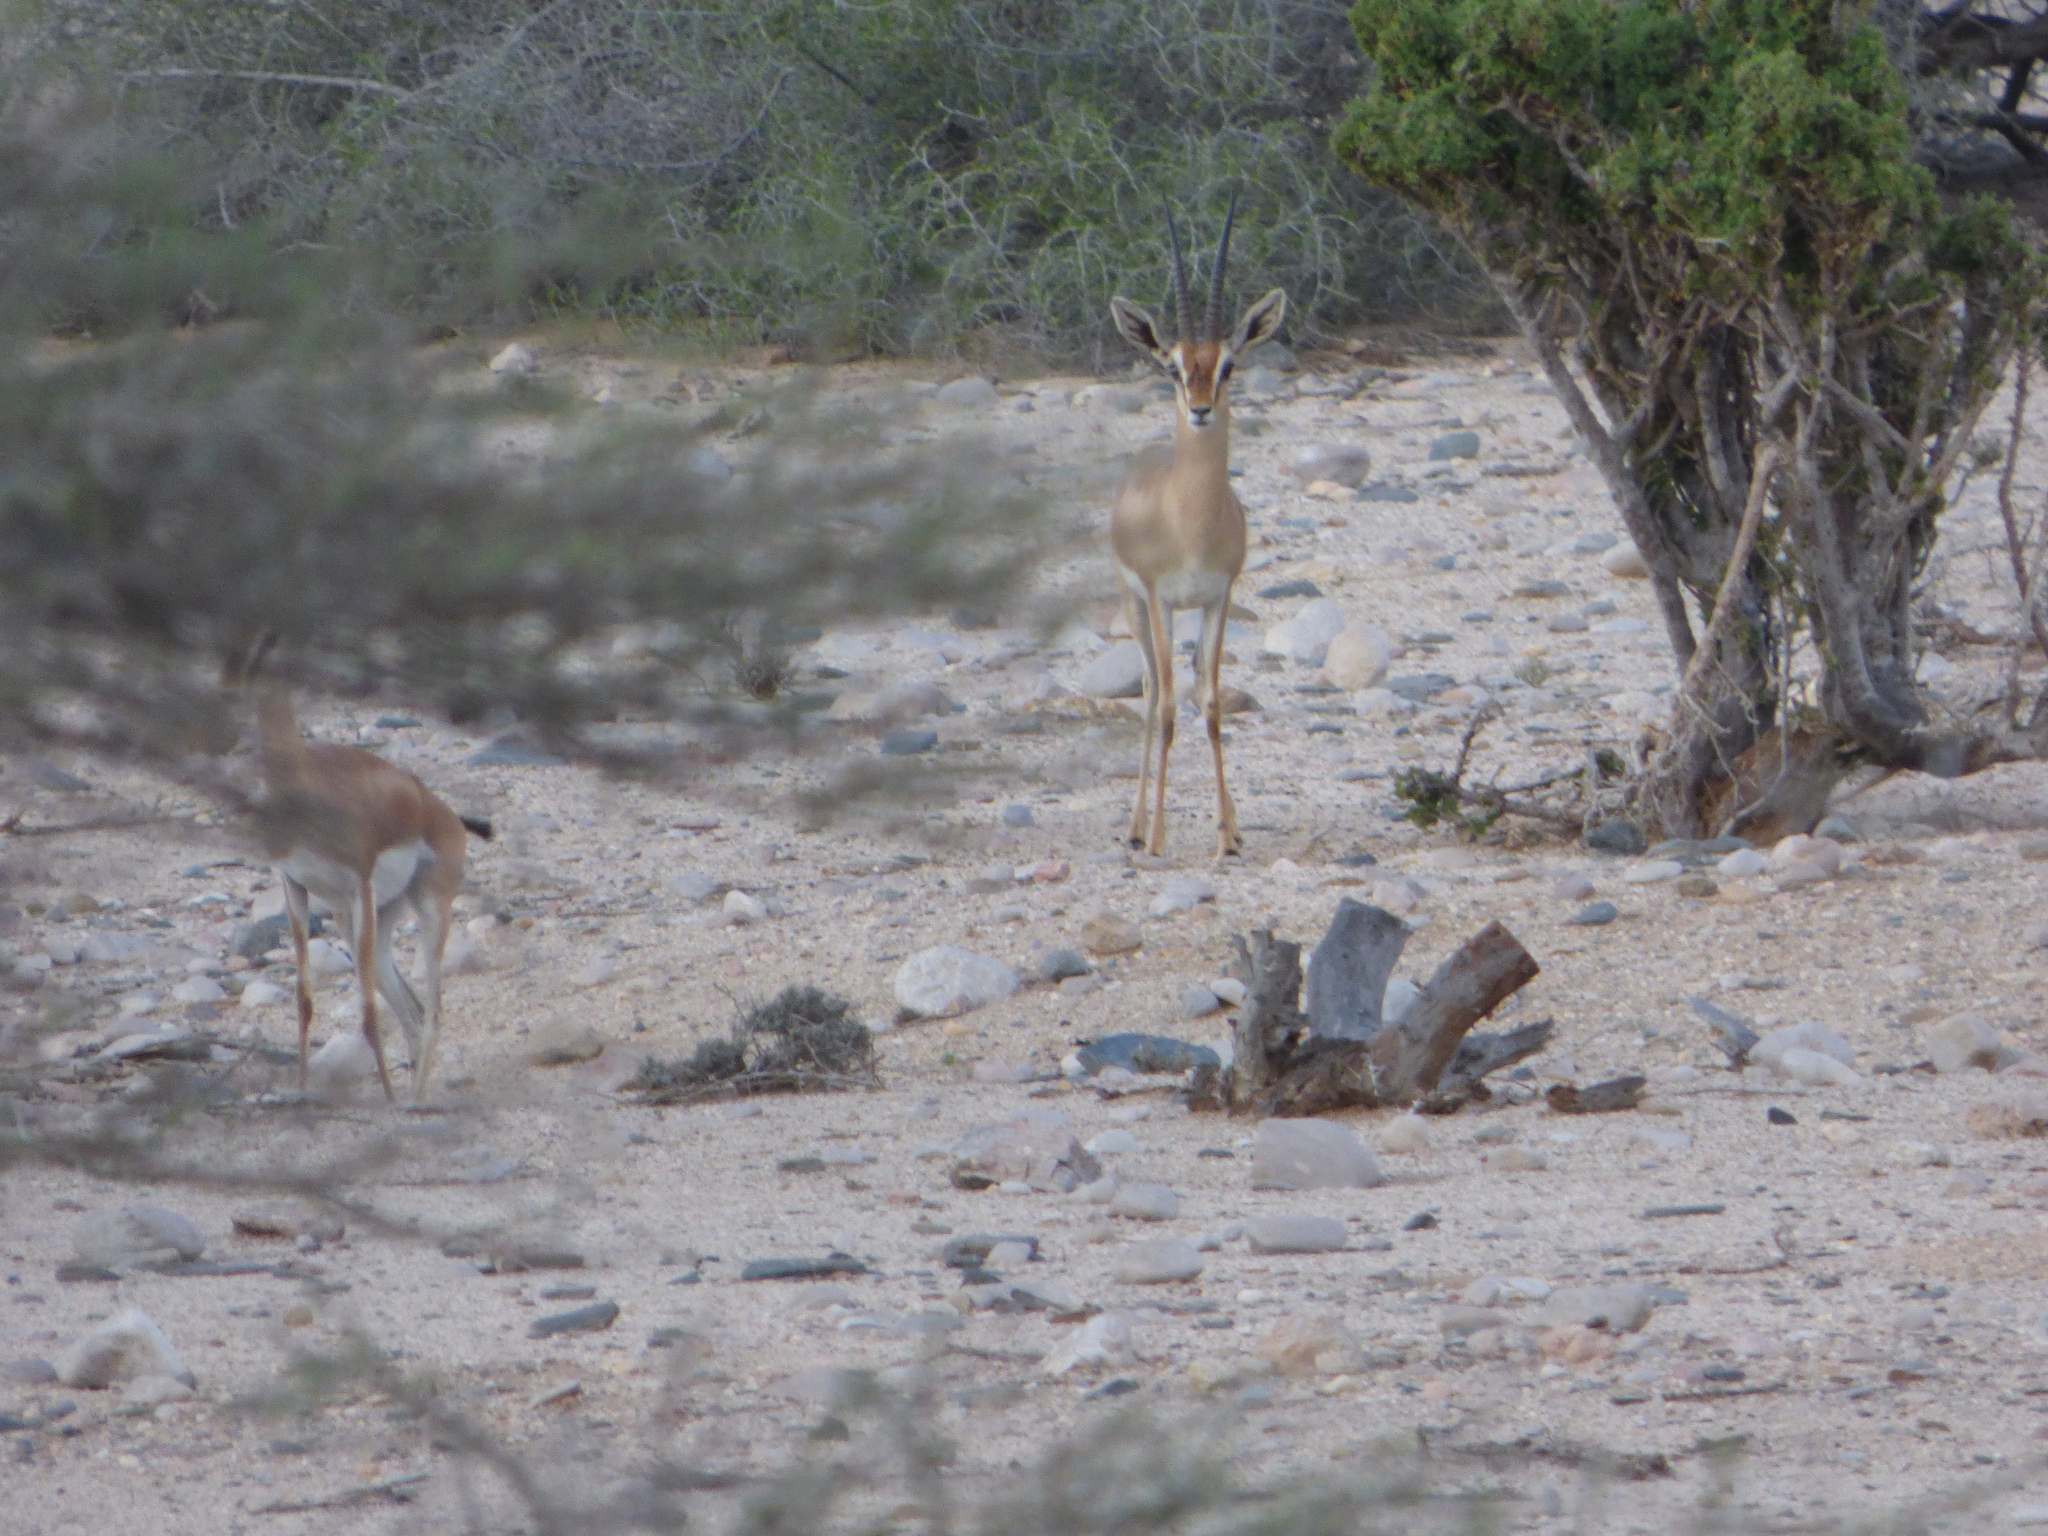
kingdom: Animalia
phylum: Chordata
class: Mammalia
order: Artiodactyla
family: Bovidae
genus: Gazella
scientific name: Gazella dorcas
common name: Dorcas gazelle
